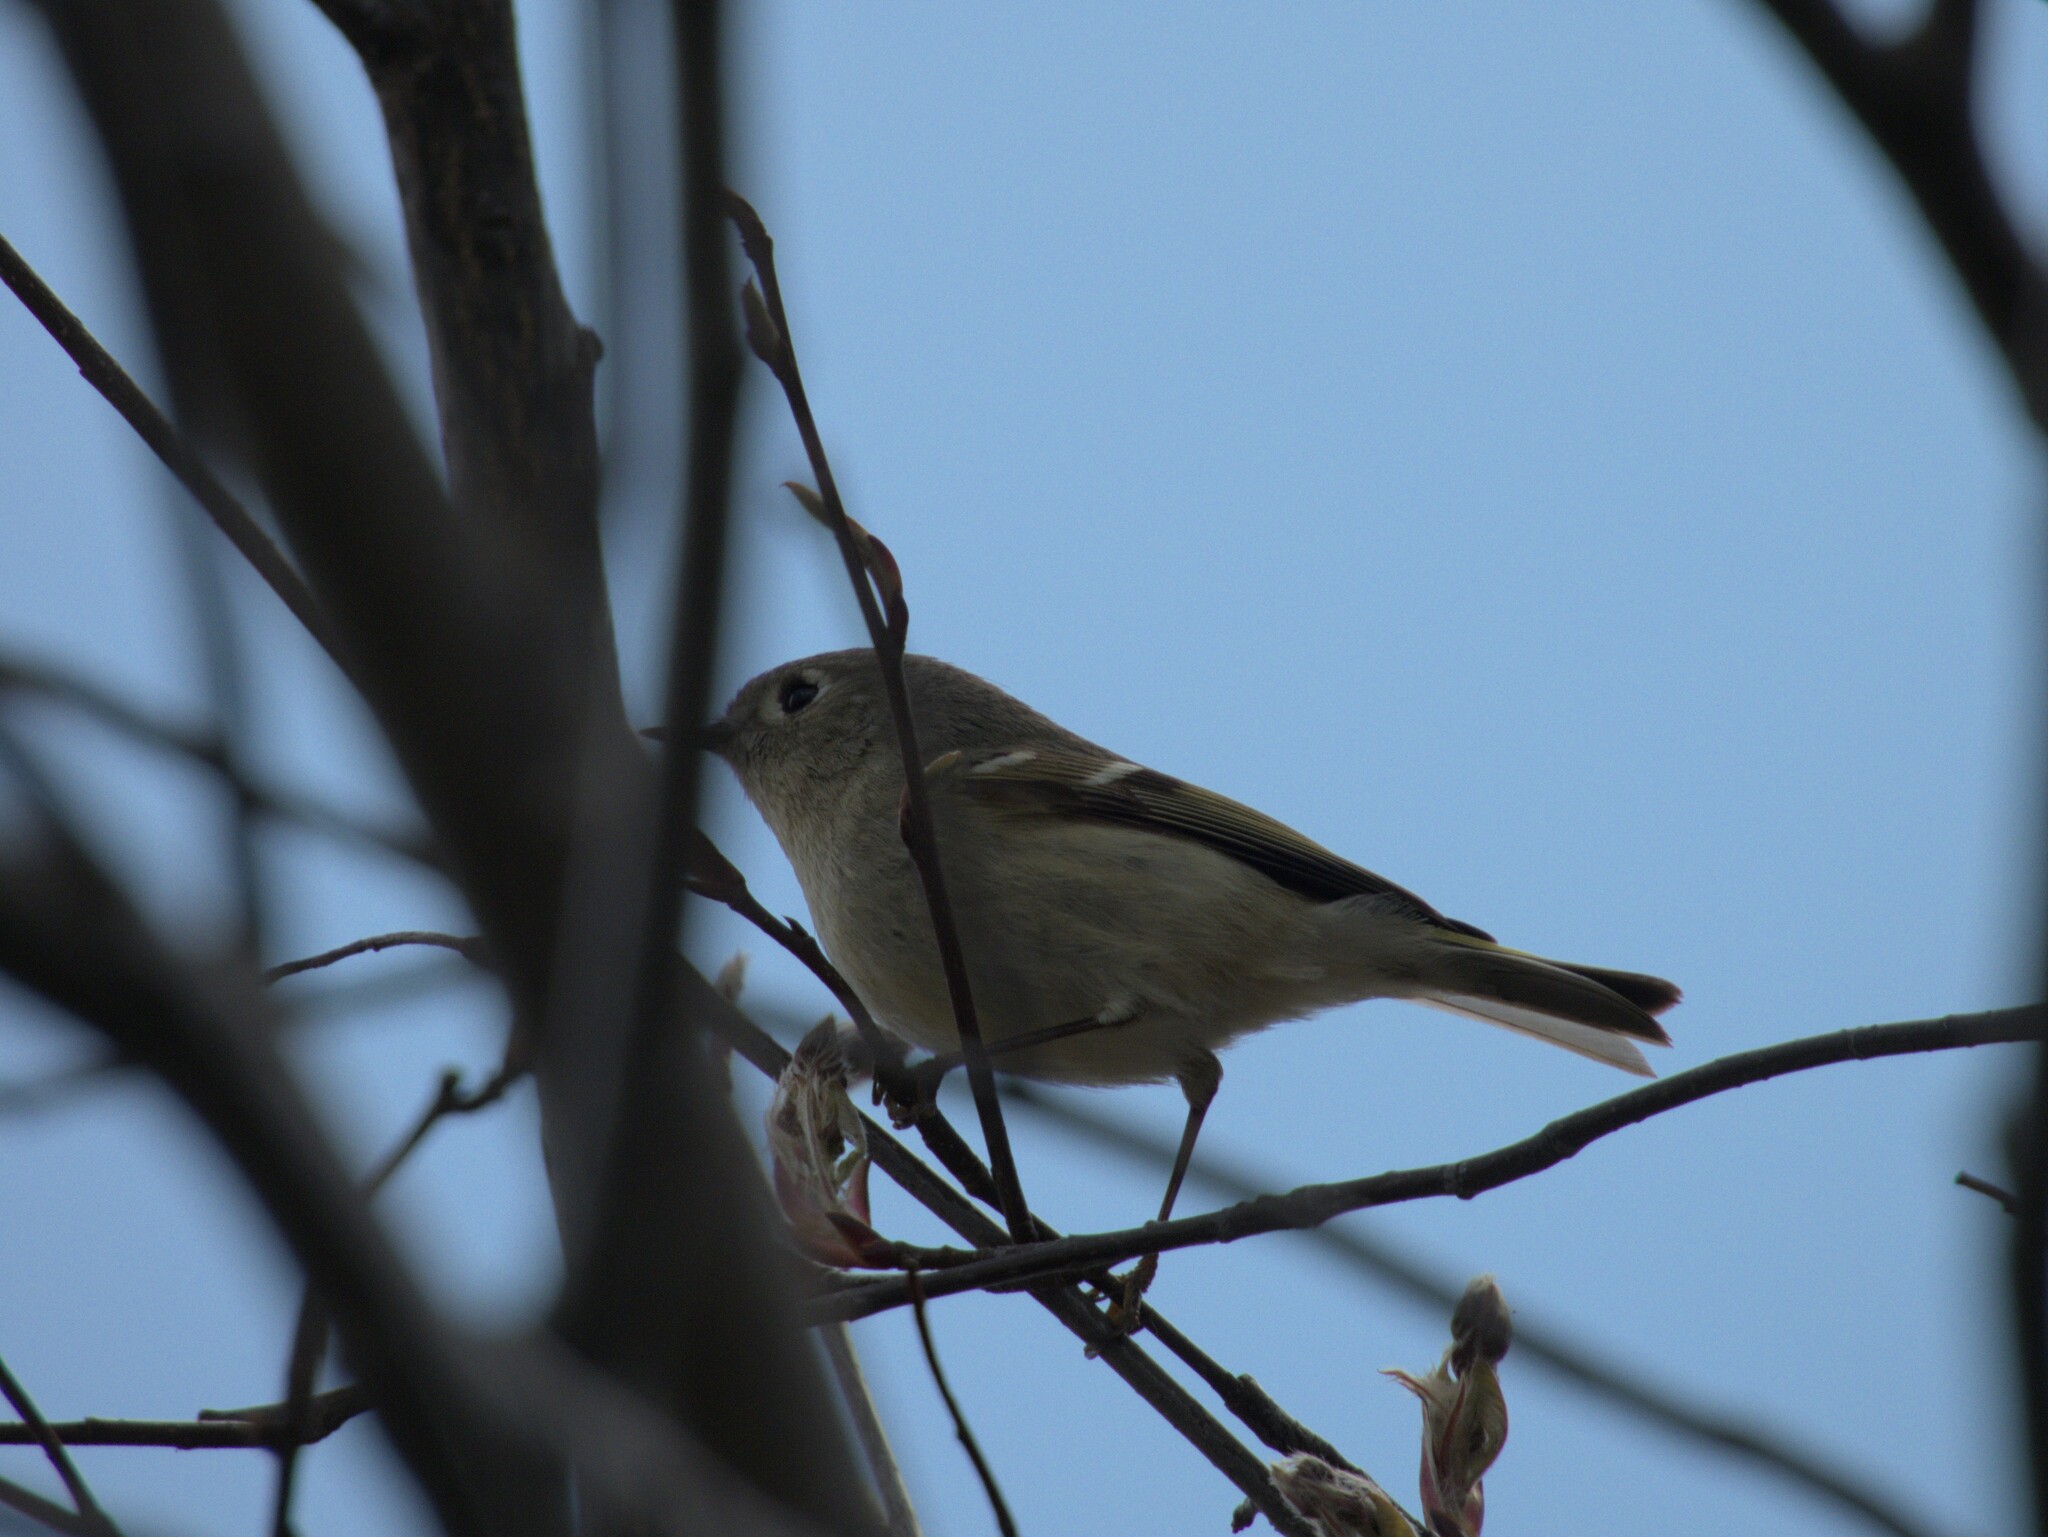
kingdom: Animalia
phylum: Chordata
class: Aves
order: Passeriformes
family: Regulidae
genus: Regulus
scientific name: Regulus calendula
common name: Ruby-crowned kinglet
